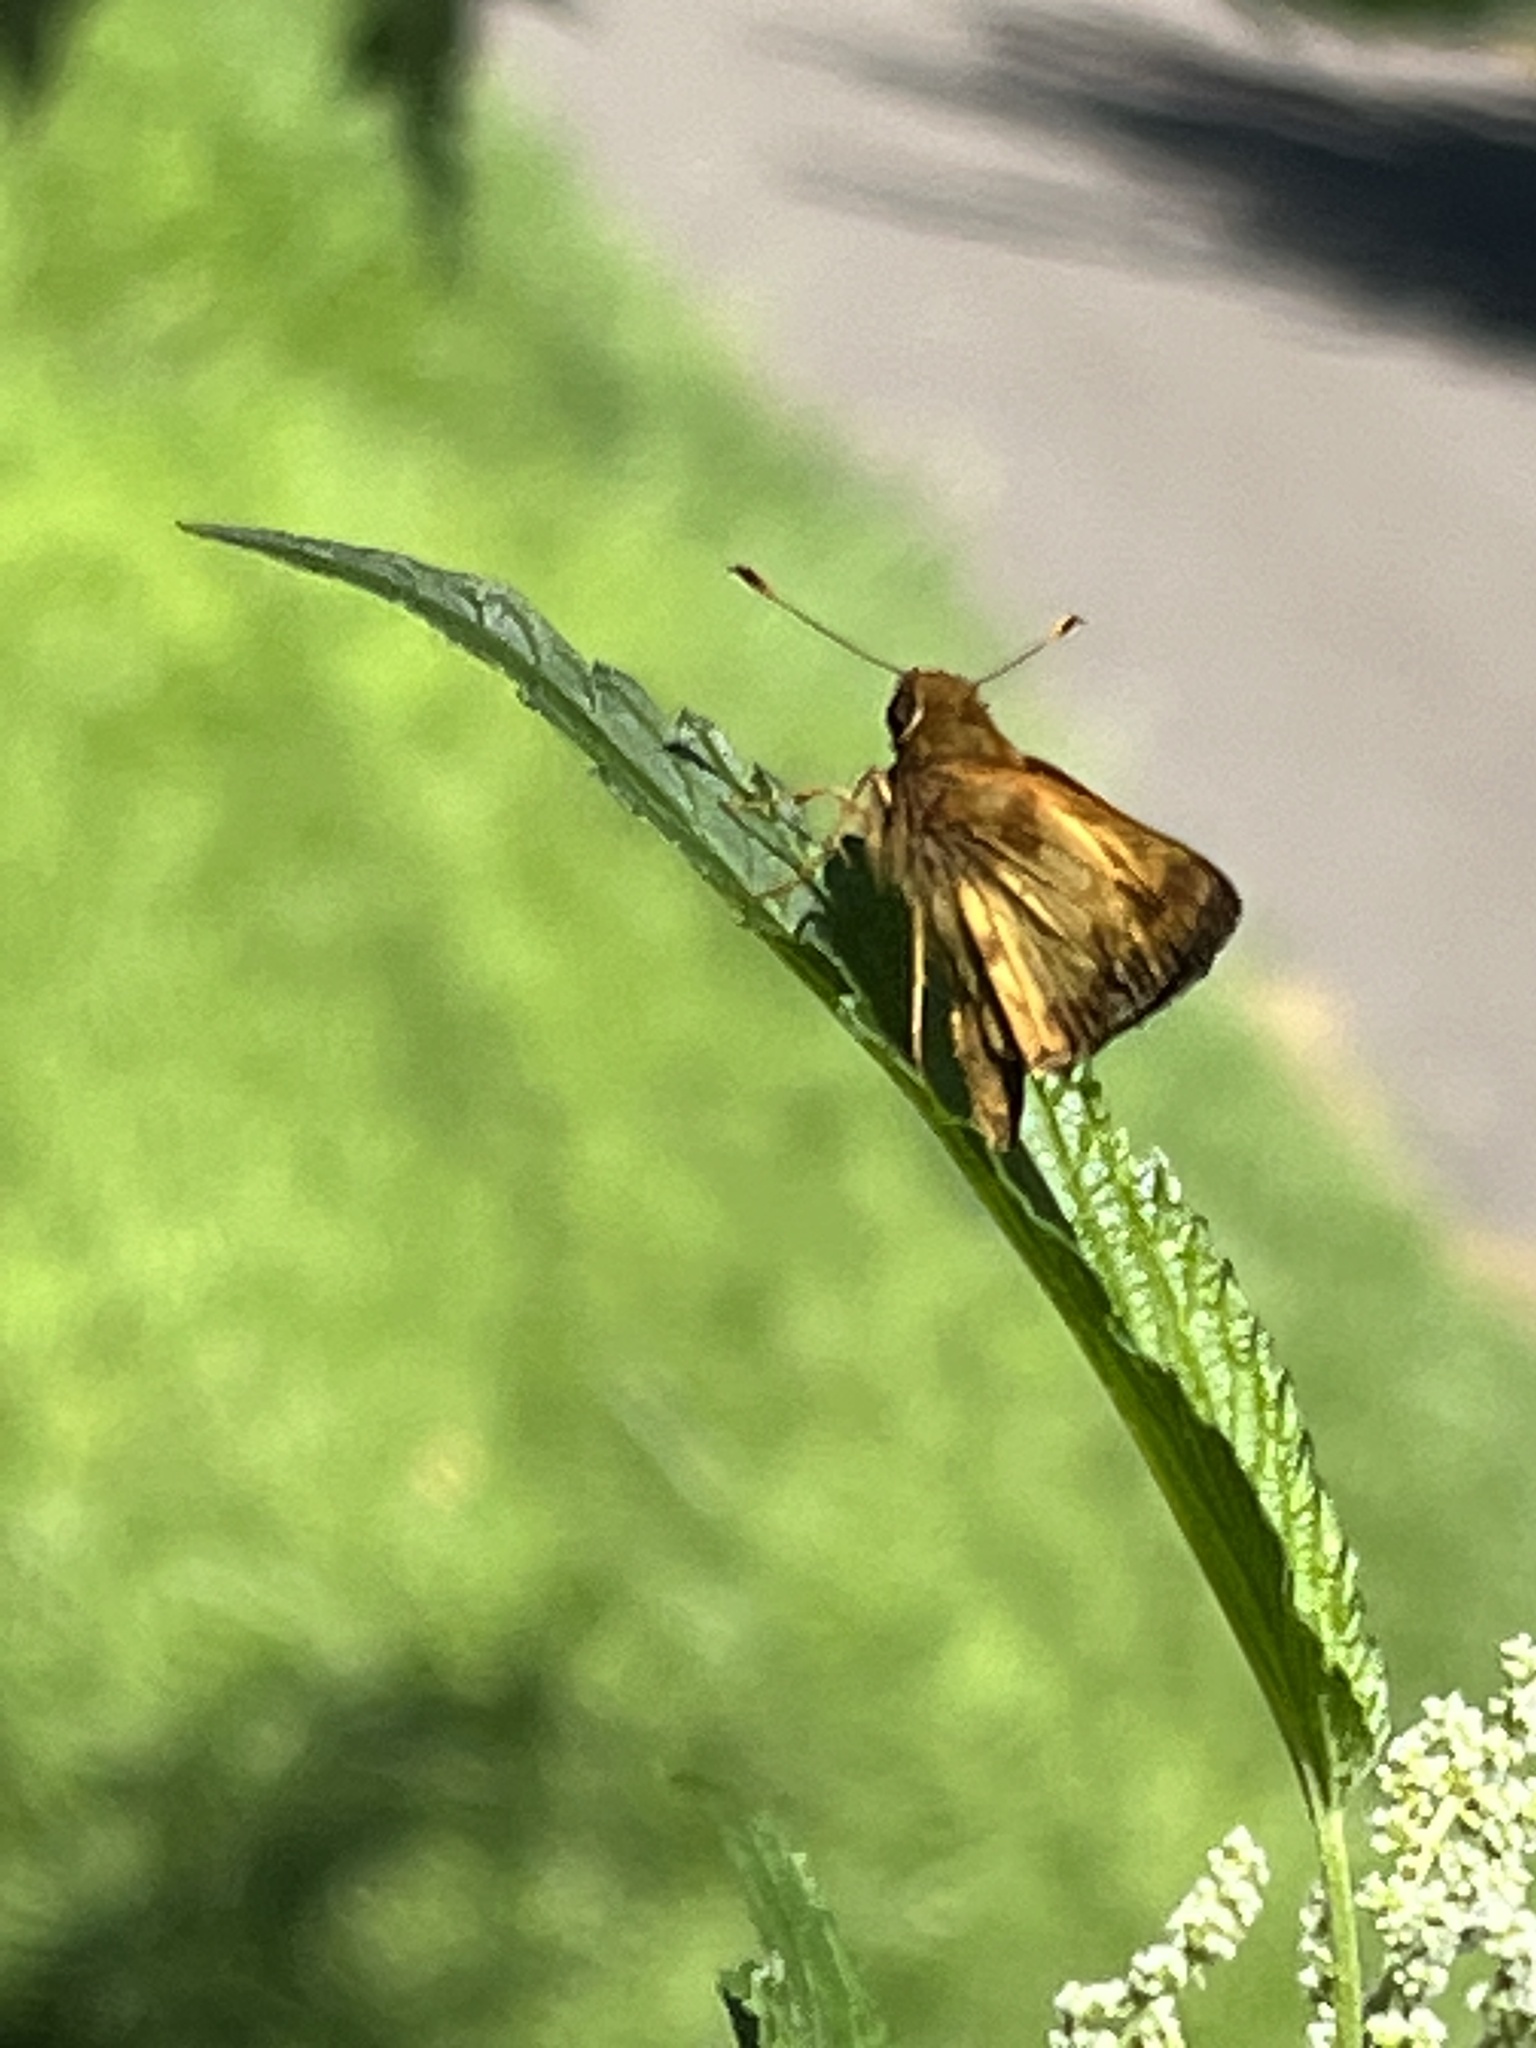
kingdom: Animalia
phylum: Arthropoda
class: Insecta
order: Lepidoptera
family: Hesperiidae
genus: Lon
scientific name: Lon zabulon
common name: Zabulon skipper
